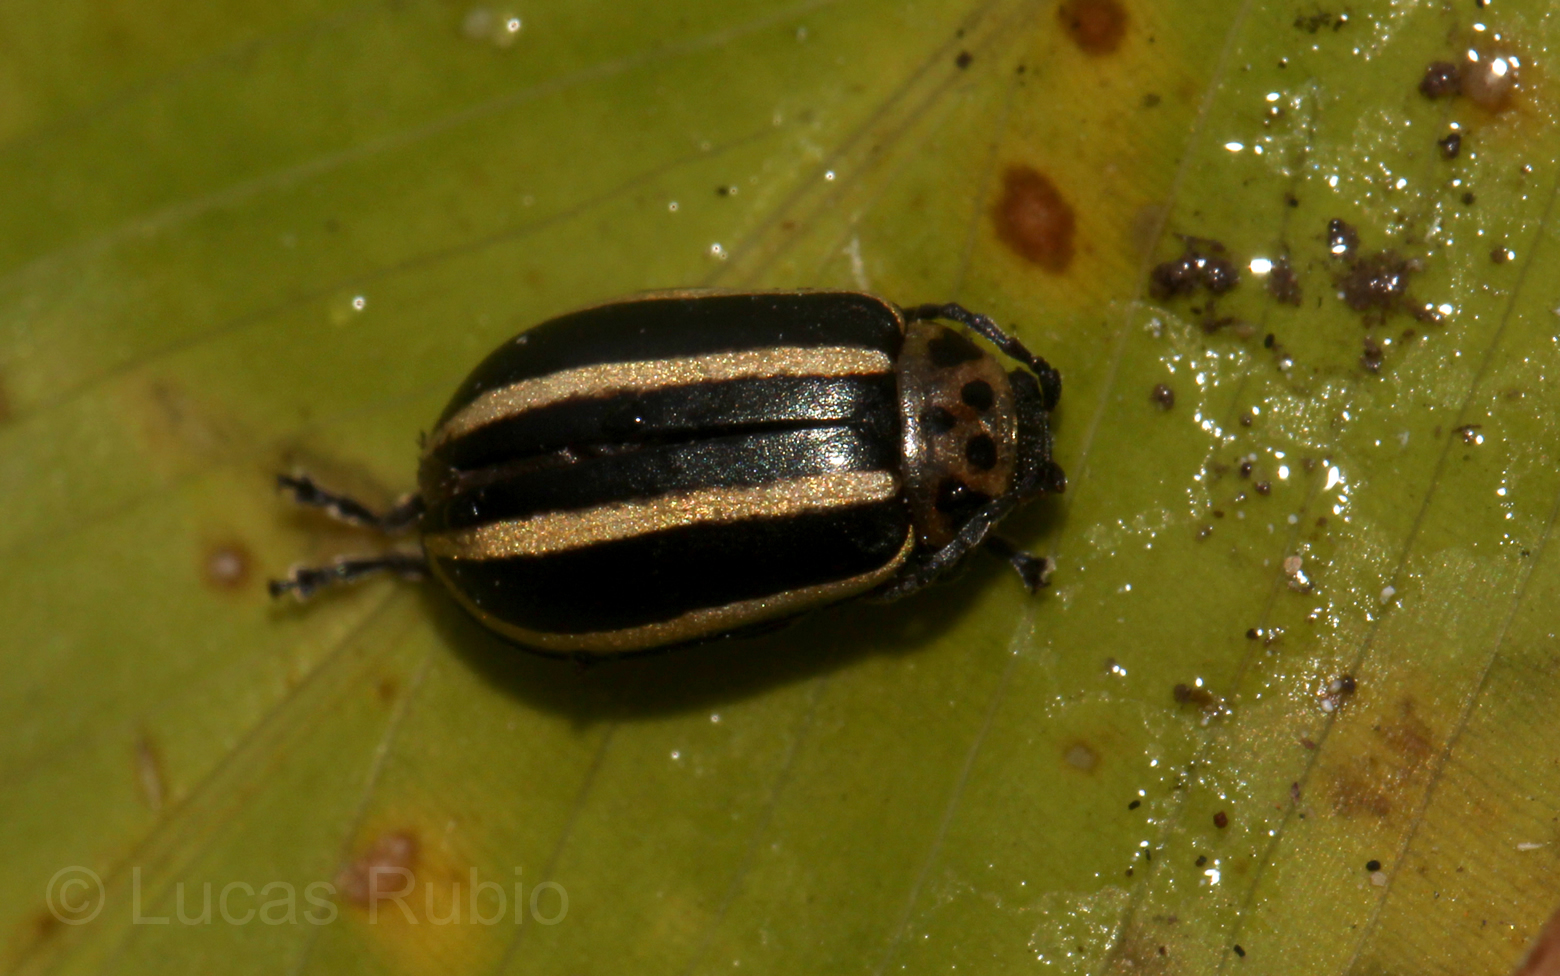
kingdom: Animalia
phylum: Arthropoda
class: Insecta
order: Coleoptera
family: Chrysomelidae
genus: Disonycha
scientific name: Disonycha conjugata
